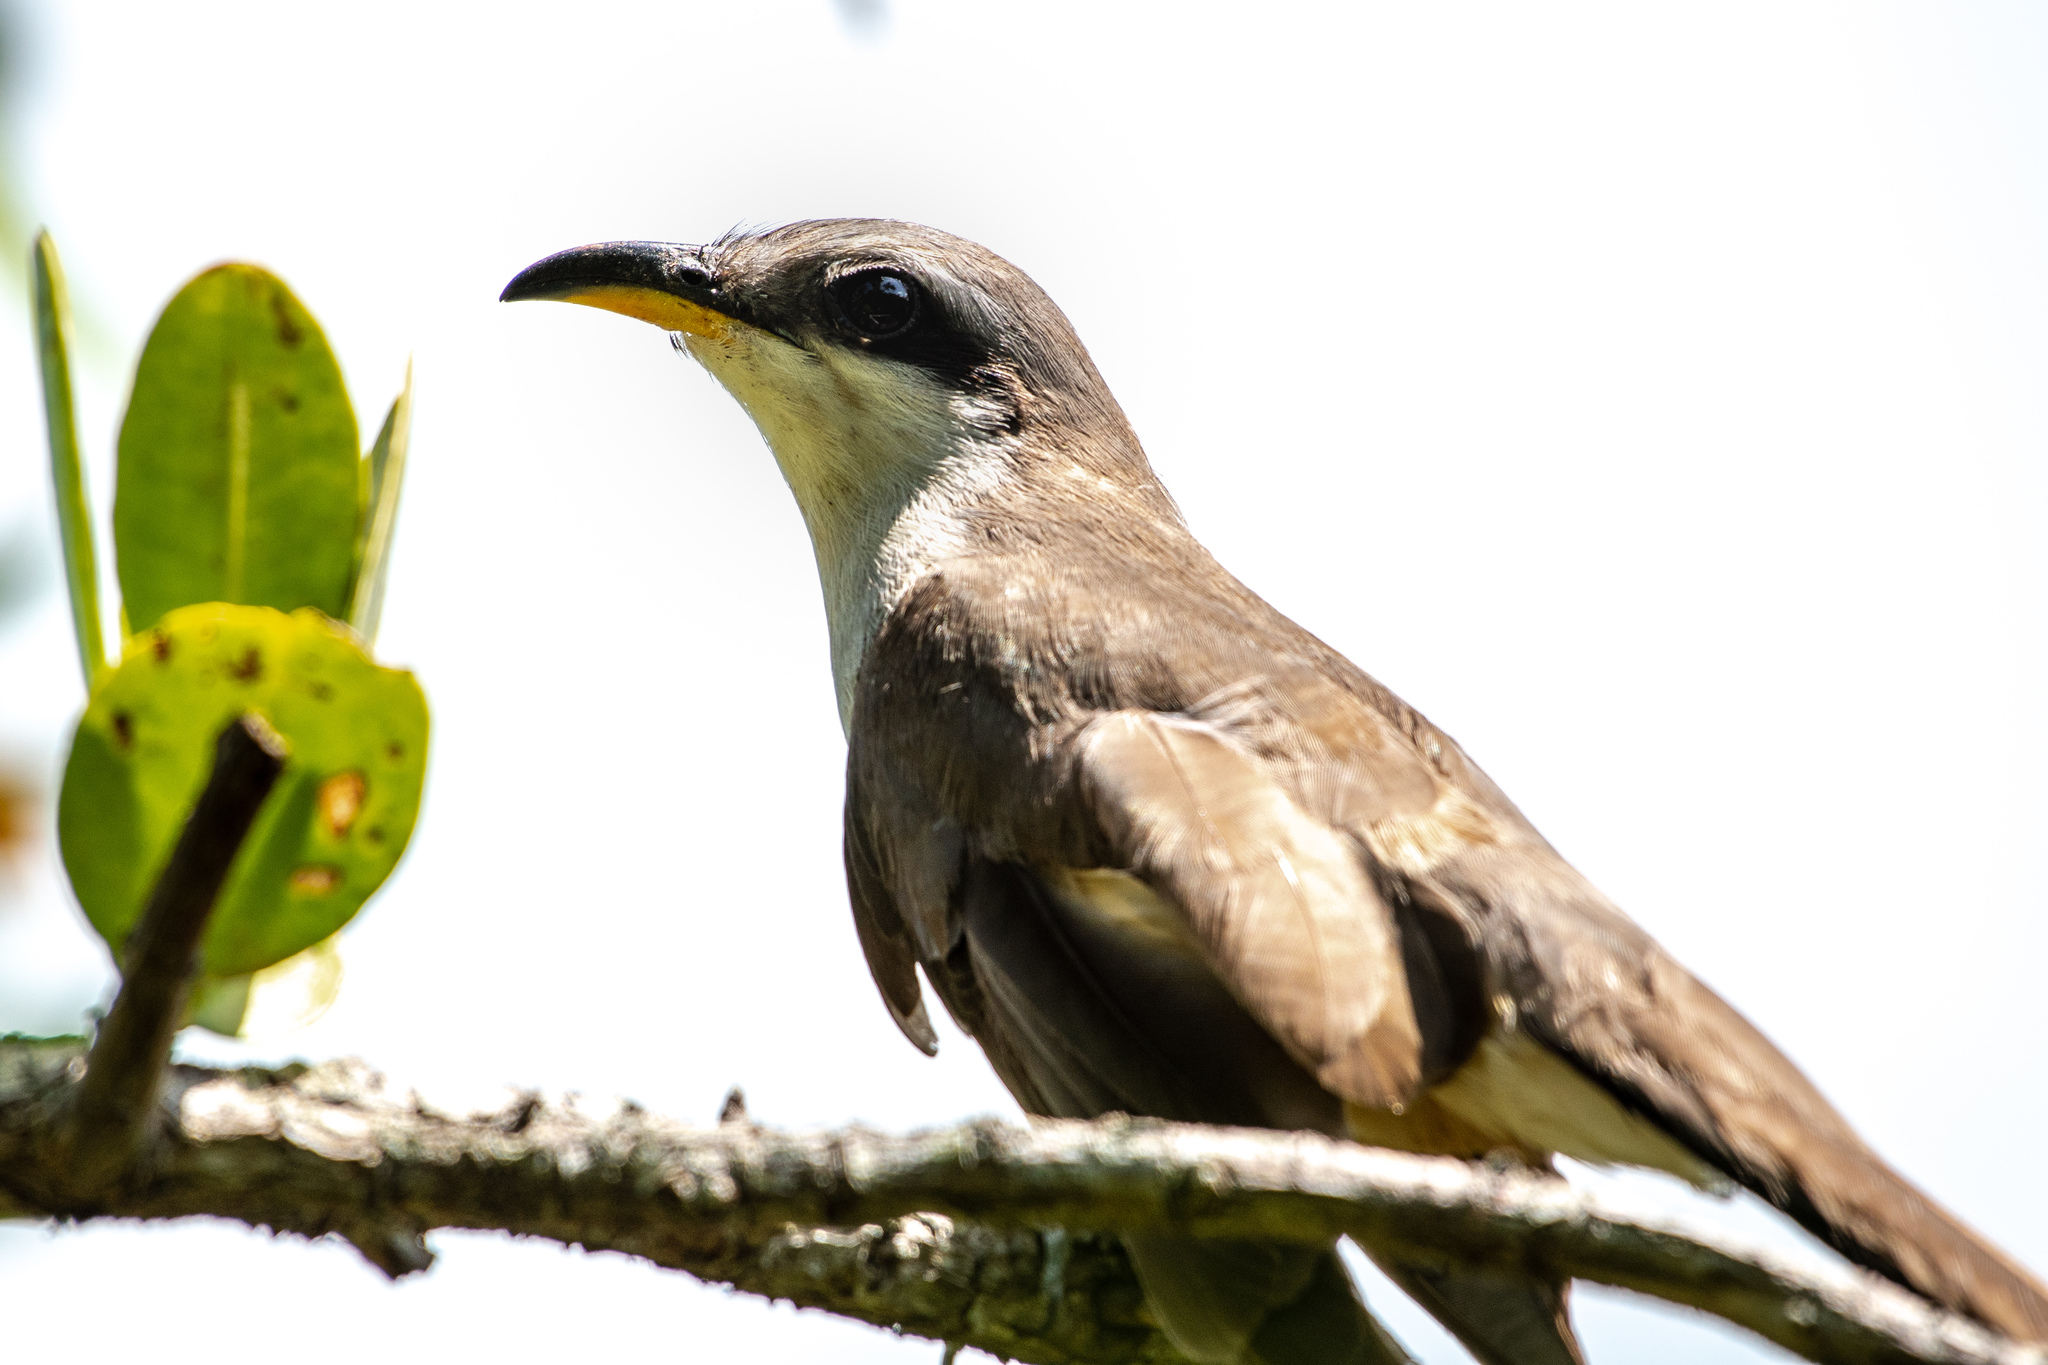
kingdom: Animalia
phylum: Chordata
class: Aves
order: Cuculiformes
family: Cuculidae
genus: Coccyzus
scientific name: Coccyzus minor
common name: Mangrove cuckoo
